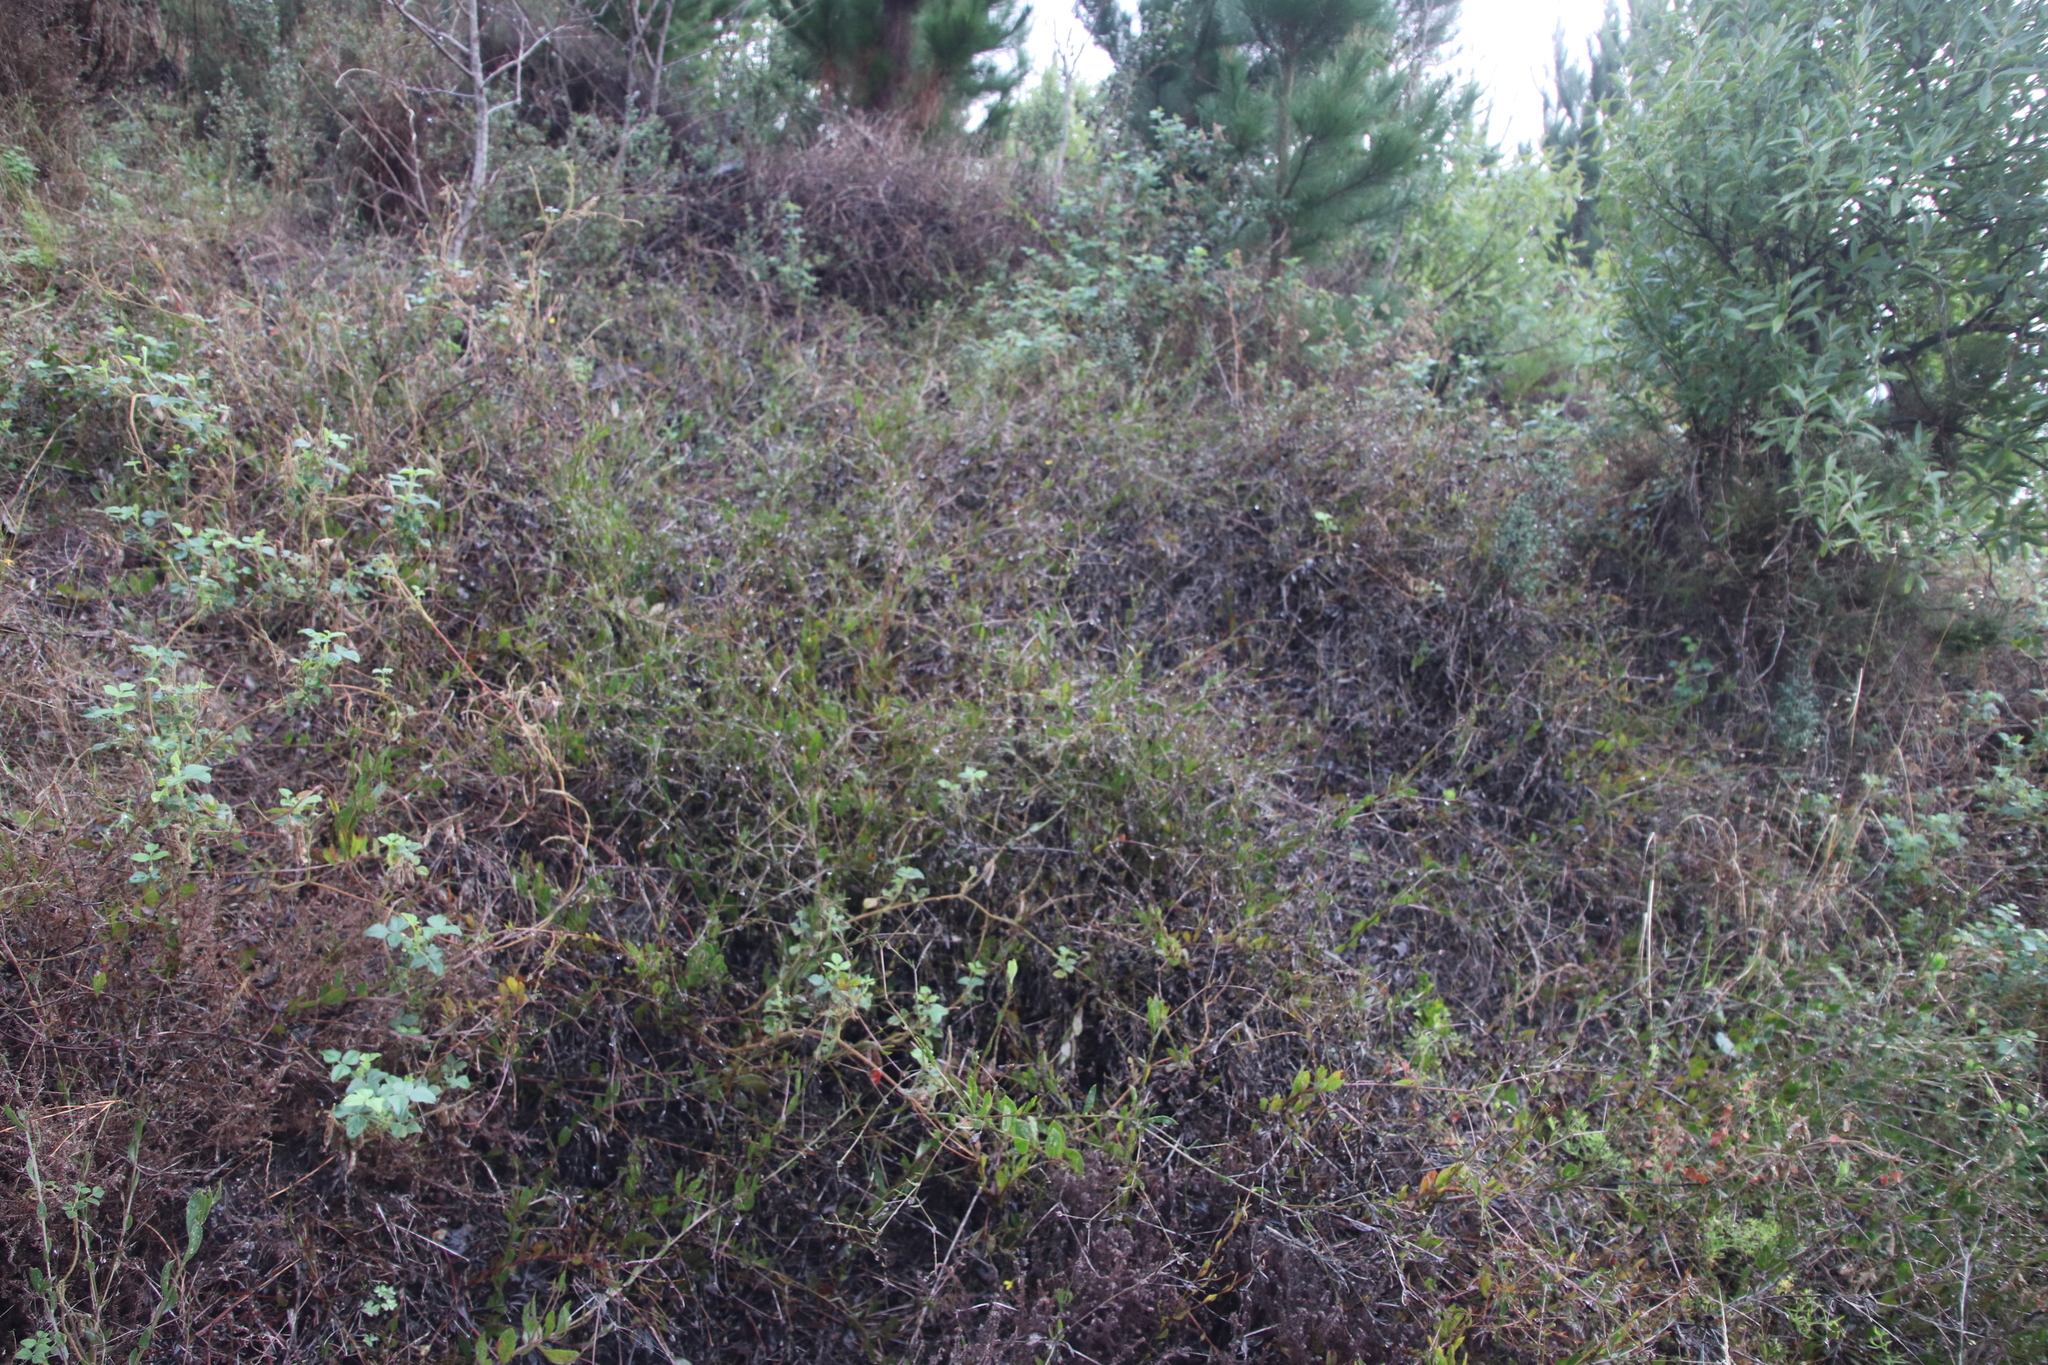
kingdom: Plantae
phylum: Tracheophyta
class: Magnoliopsida
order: Asterales
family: Asteraceae
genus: Osteospermum
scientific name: Osteospermum ciliatum
